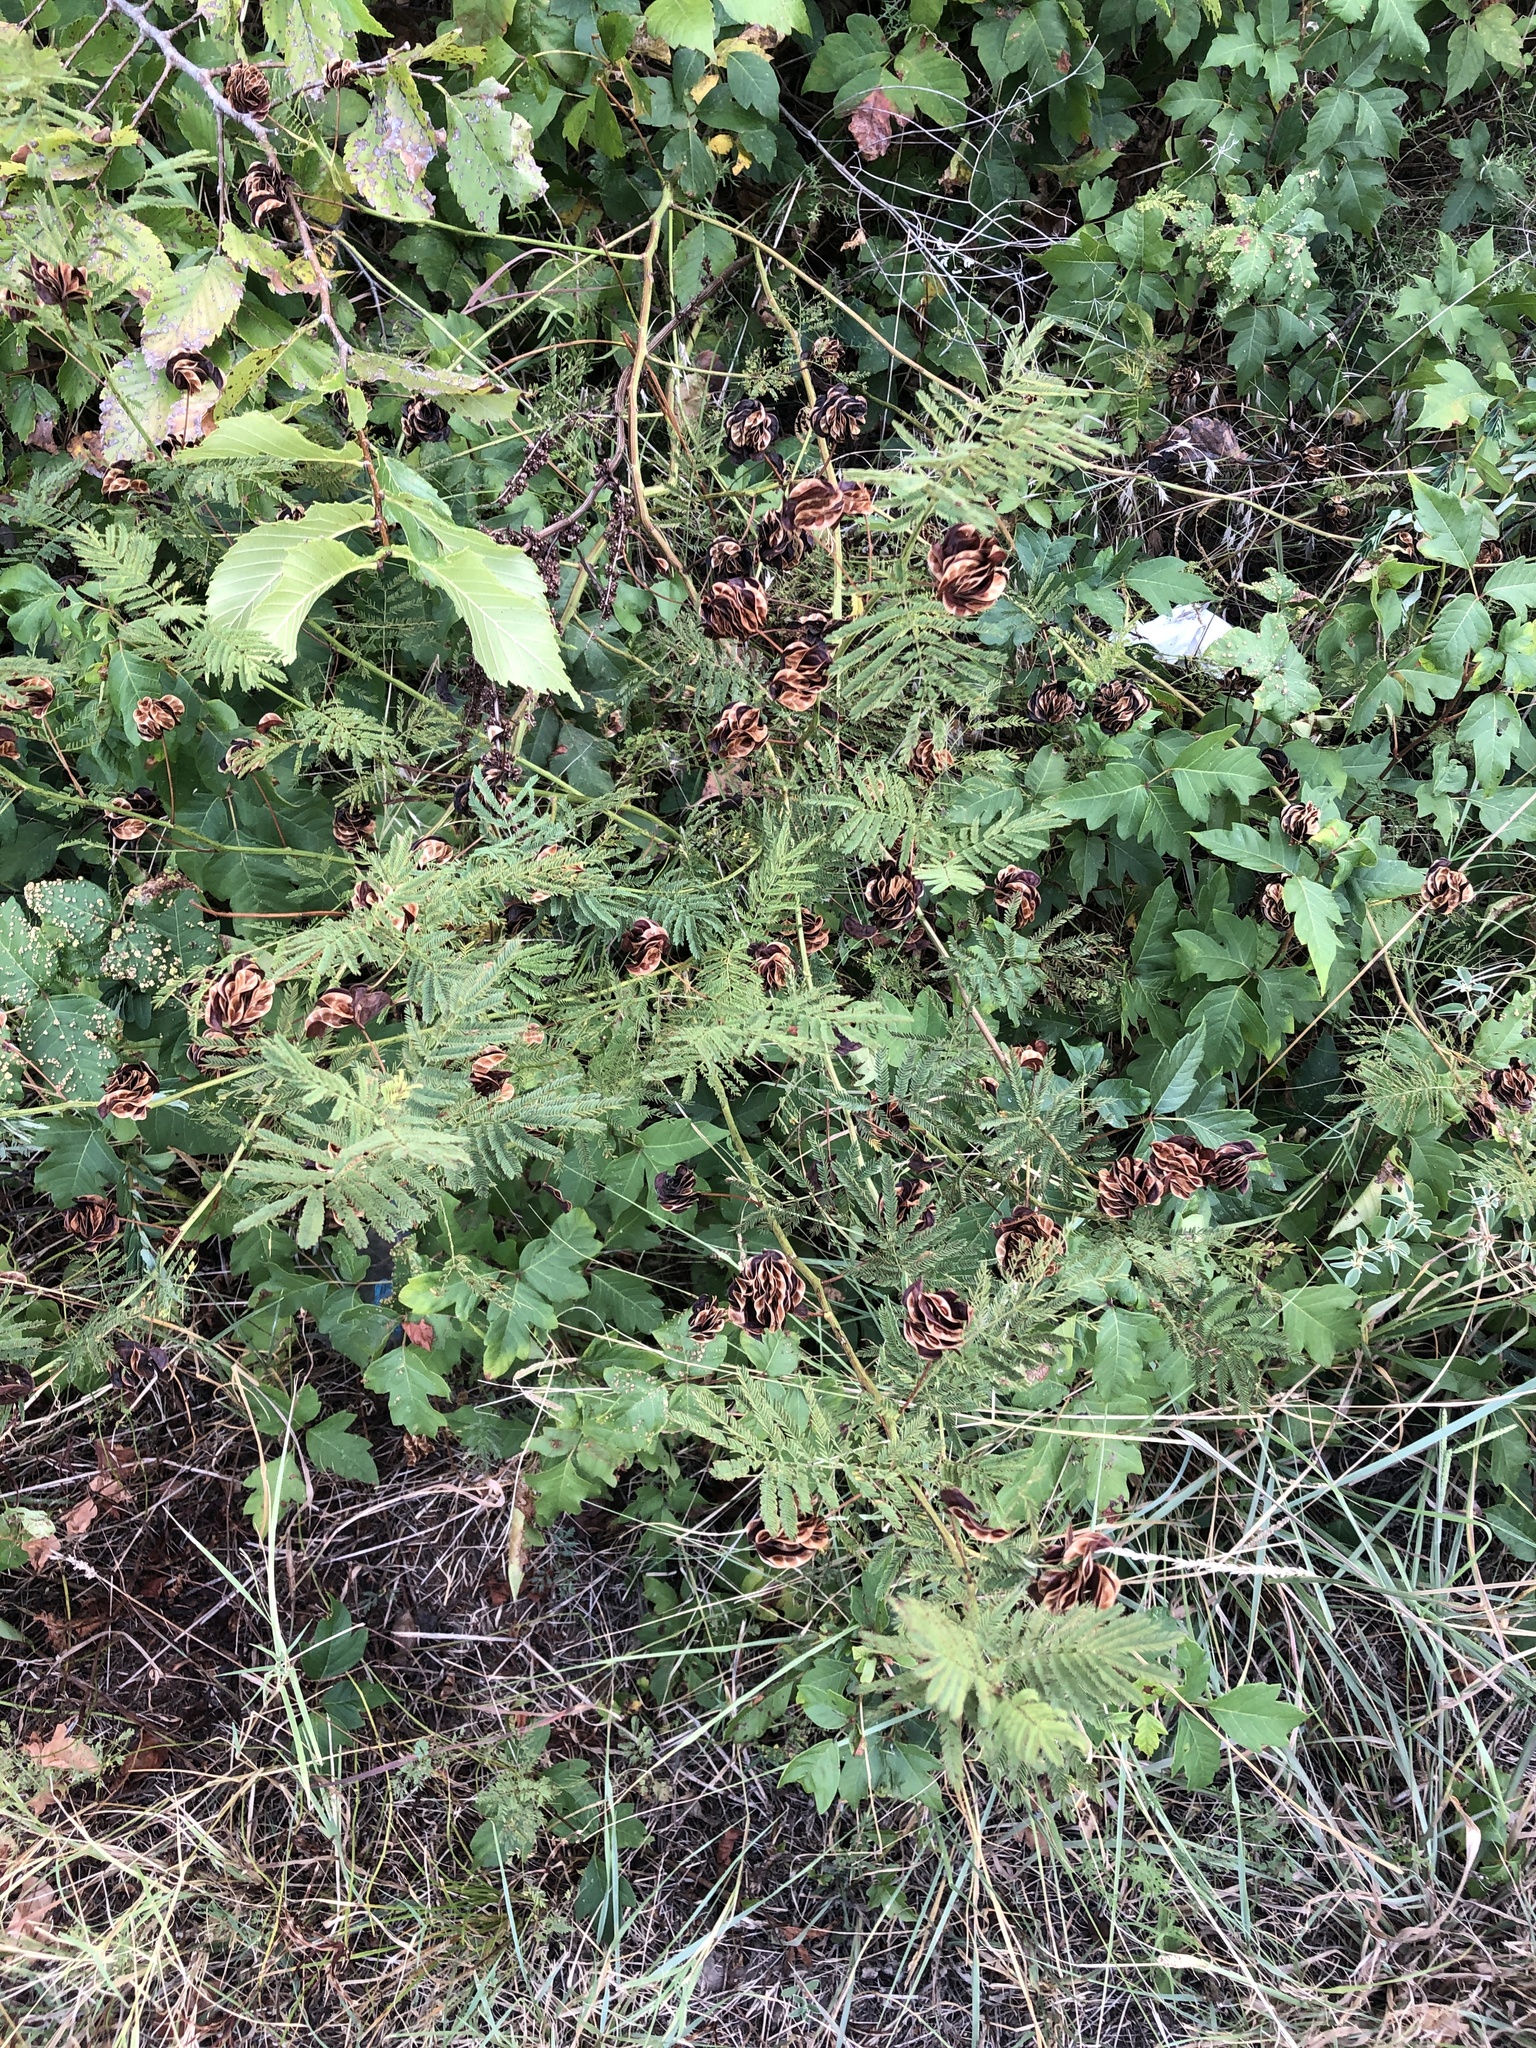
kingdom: Plantae
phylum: Tracheophyta
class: Magnoliopsida
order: Fabales
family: Fabaceae
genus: Desmanthus
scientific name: Desmanthus illinoensis
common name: Illinois bundle-flower
